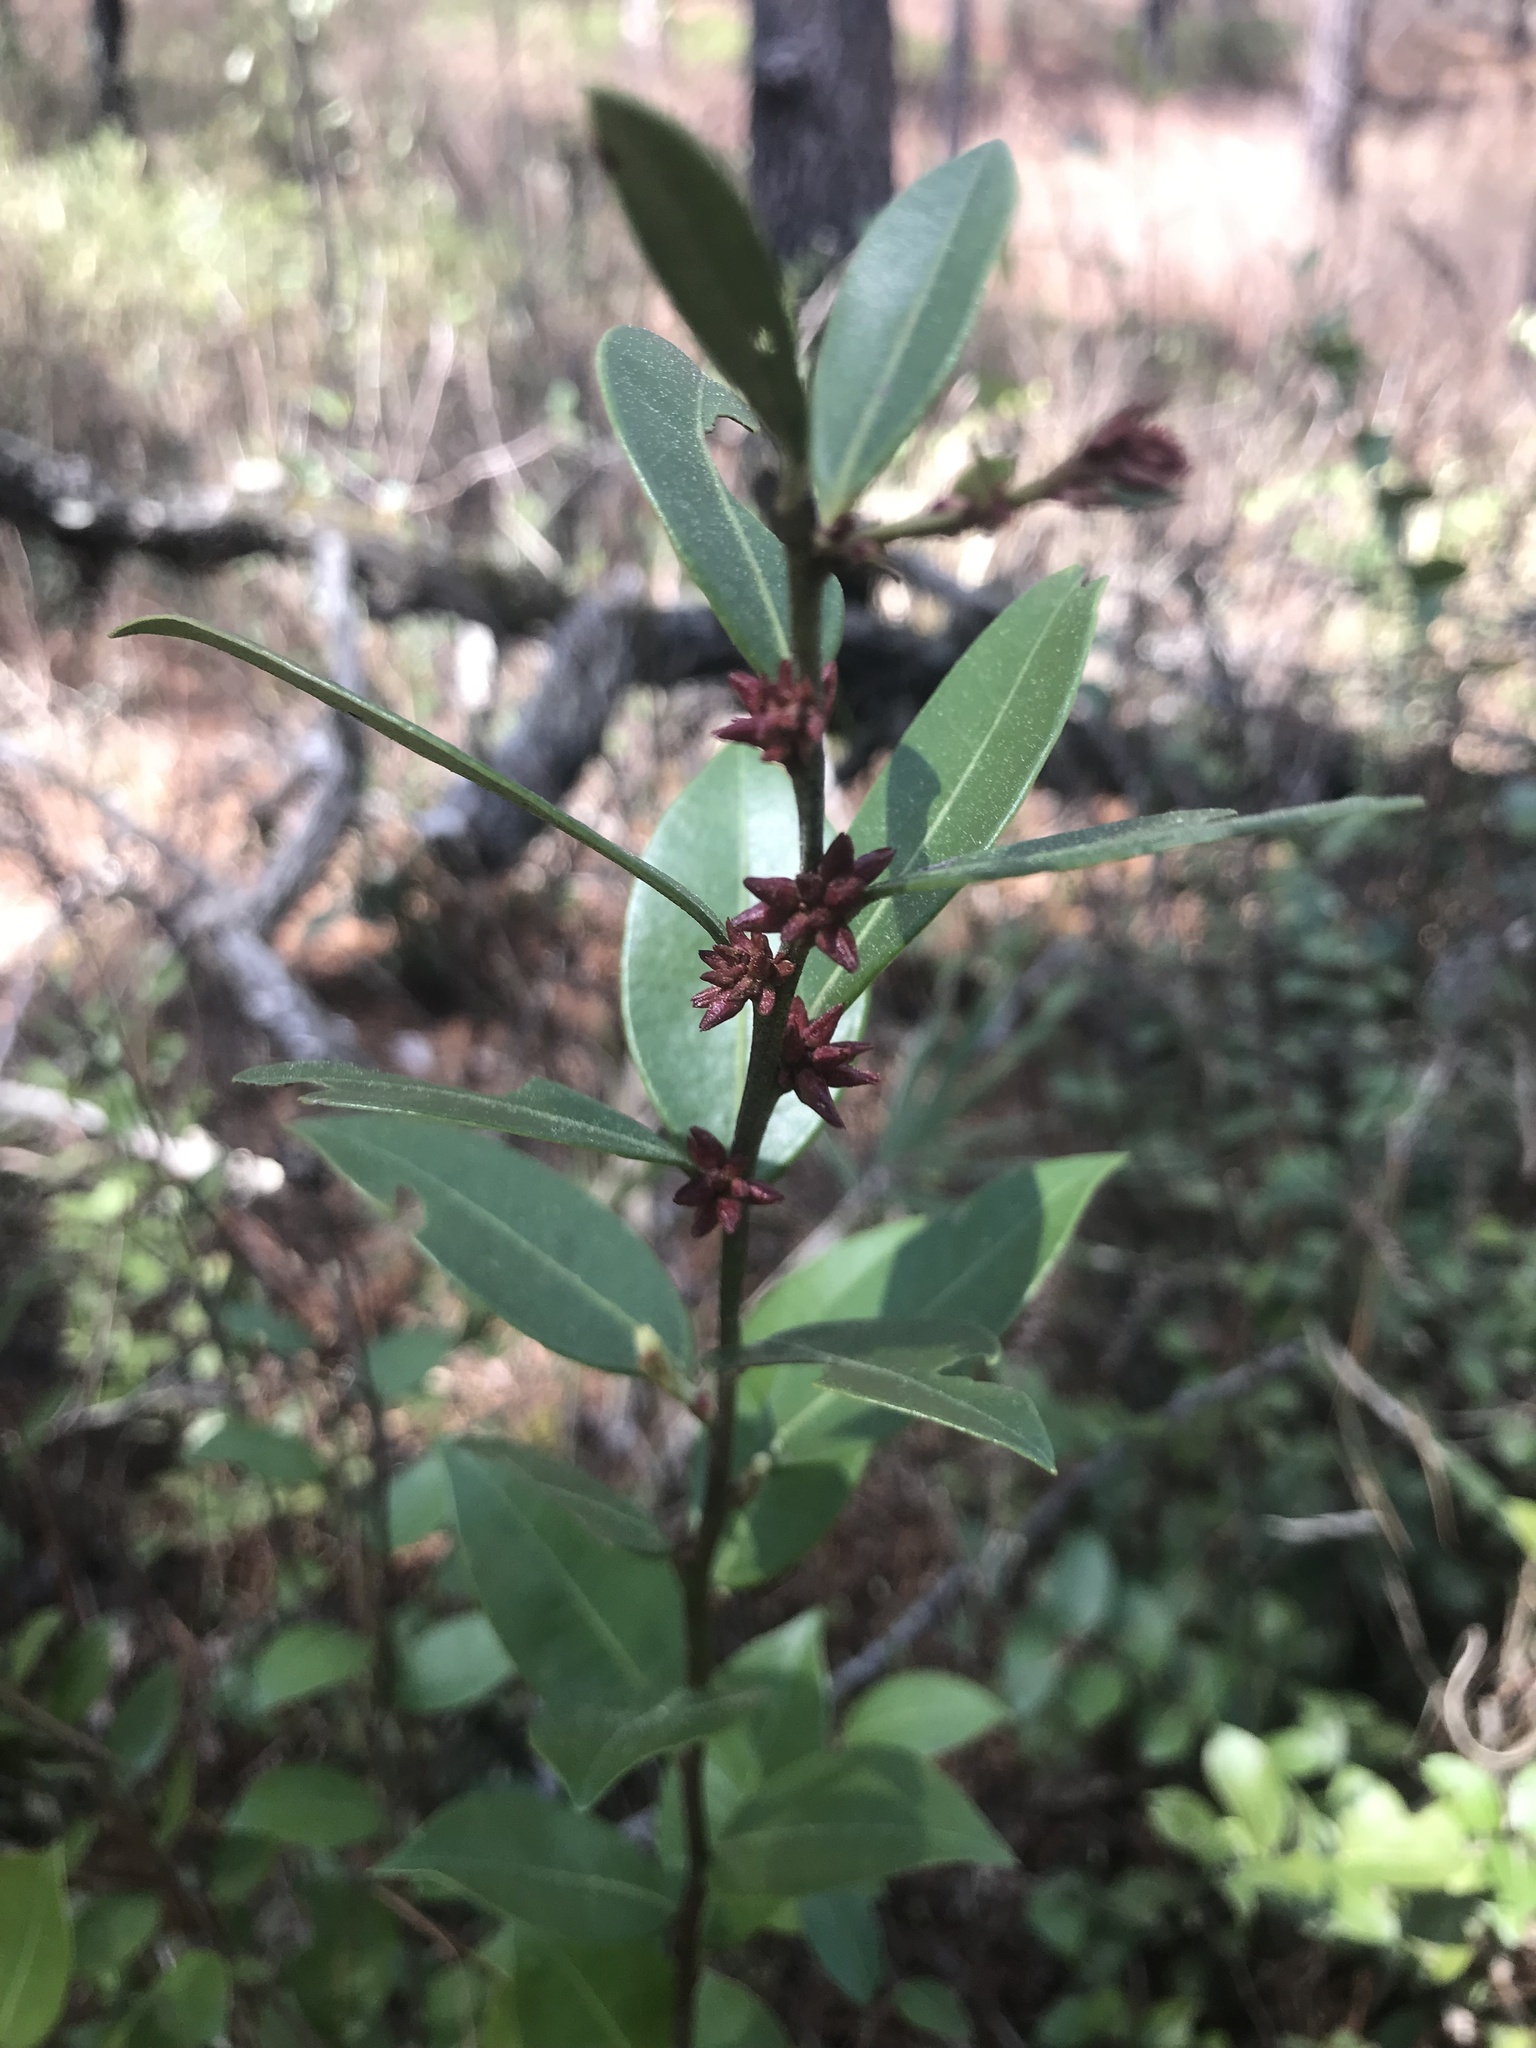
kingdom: Plantae
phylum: Tracheophyta
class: Magnoliopsida
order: Ericales
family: Ericaceae
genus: Lyonia
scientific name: Lyonia lucida
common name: Fetterbush
